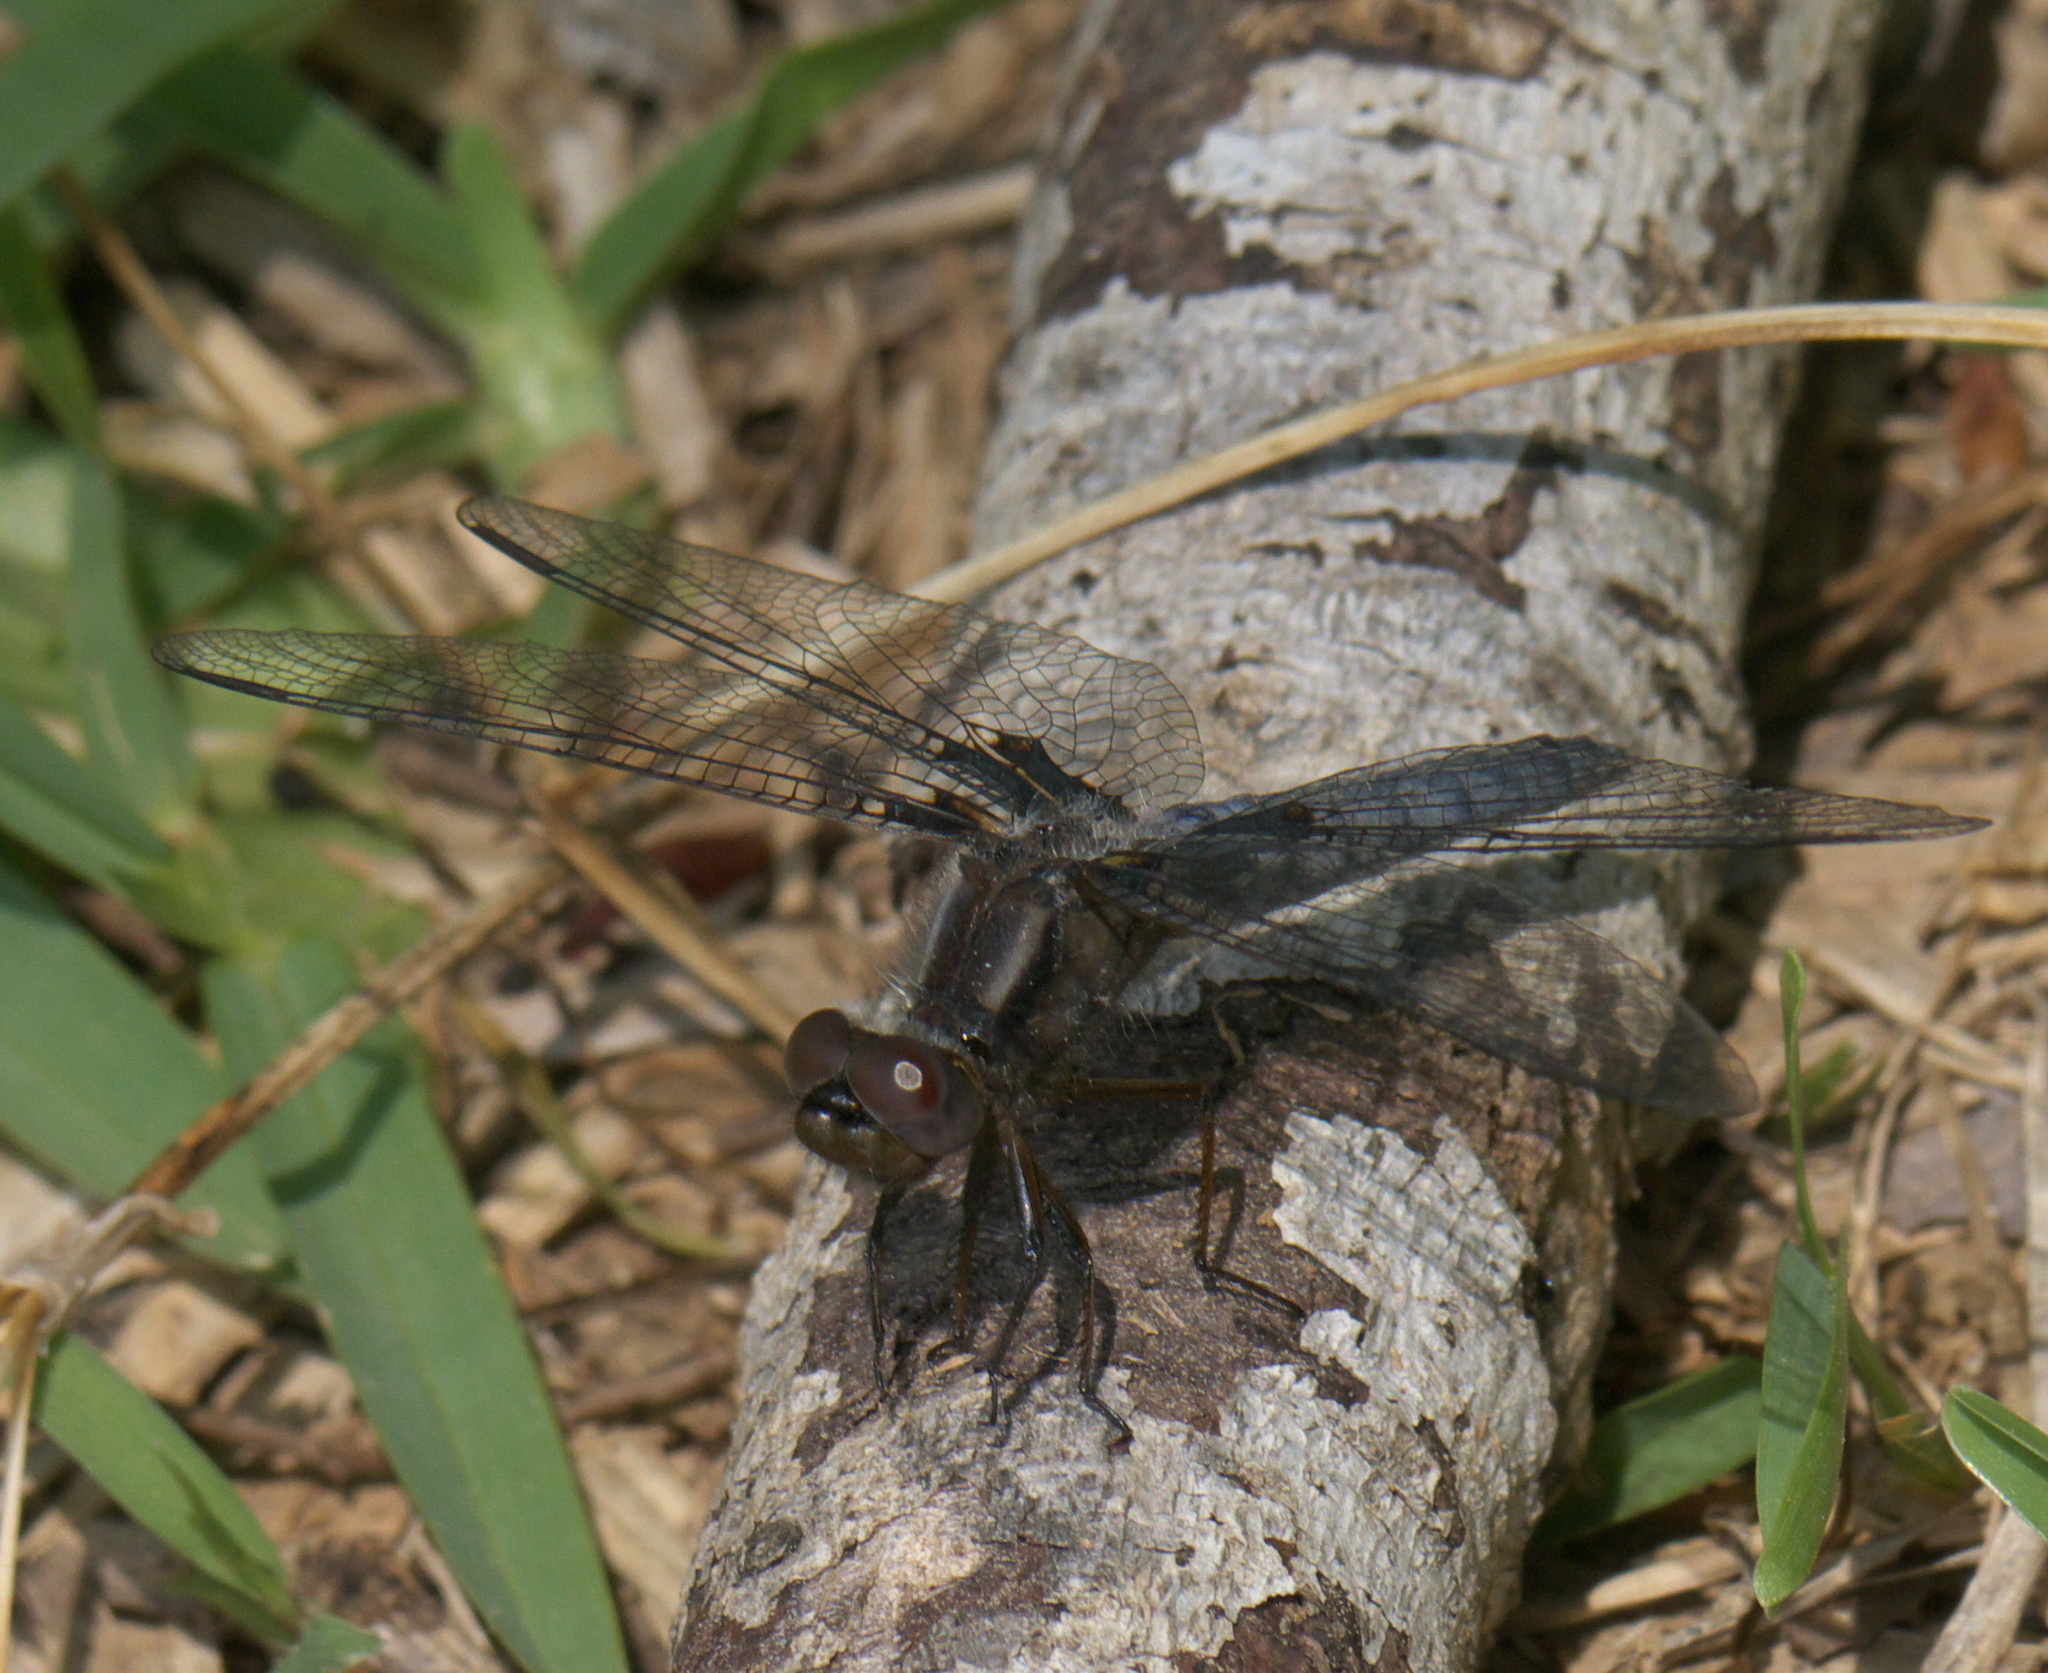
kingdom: Animalia
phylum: Arthropoda
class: Insecta
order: Odonata
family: Libellulidae
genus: Ladona
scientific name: Ladona deplanata
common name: Blue corporal
